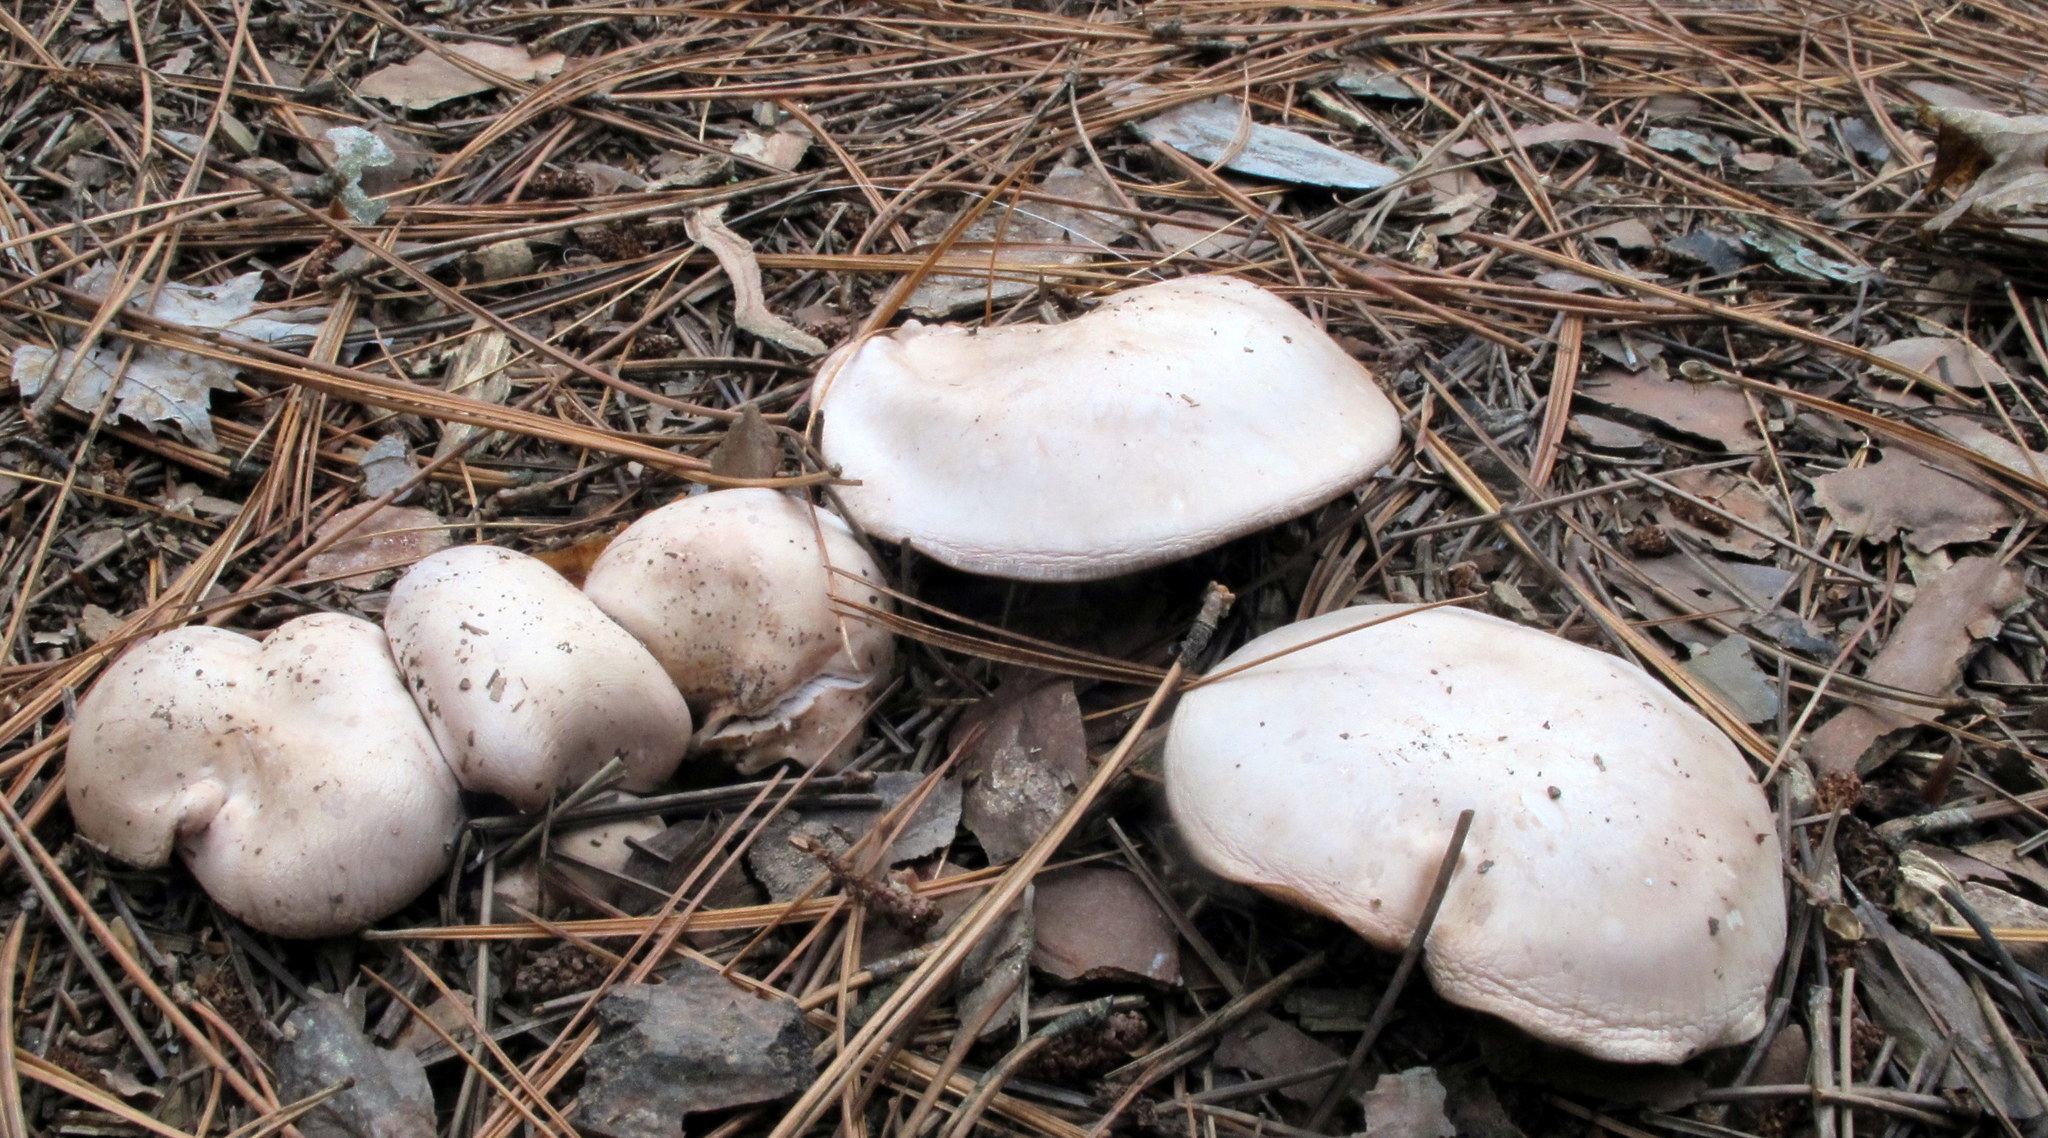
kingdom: Fungi
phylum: Basidiomycota
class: Agaricomycetes
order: Agaricales
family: Tricholomataceae
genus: Collybia
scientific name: Collybia
